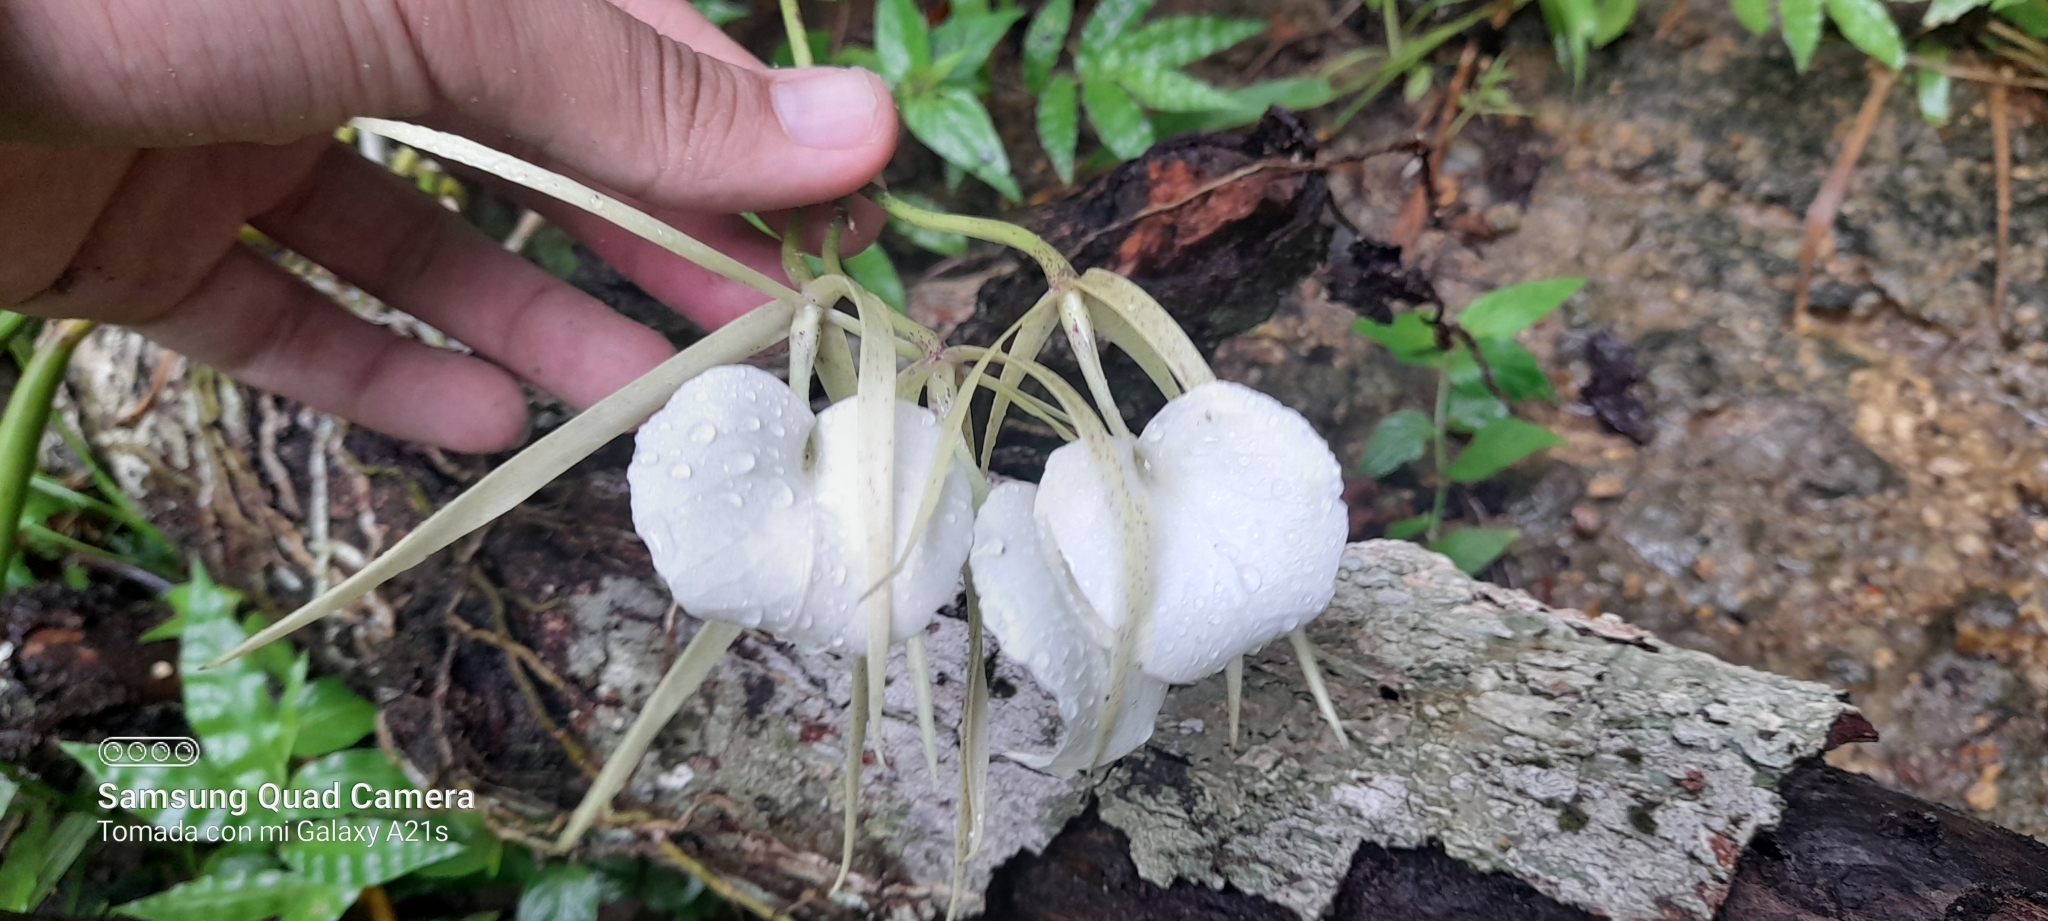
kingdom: Plantae
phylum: Tracheophyta
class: Liliopsida
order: Asparagales
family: Orchidaceae
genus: Brassavola
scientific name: Brassavola nodosa
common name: Lady of the night
